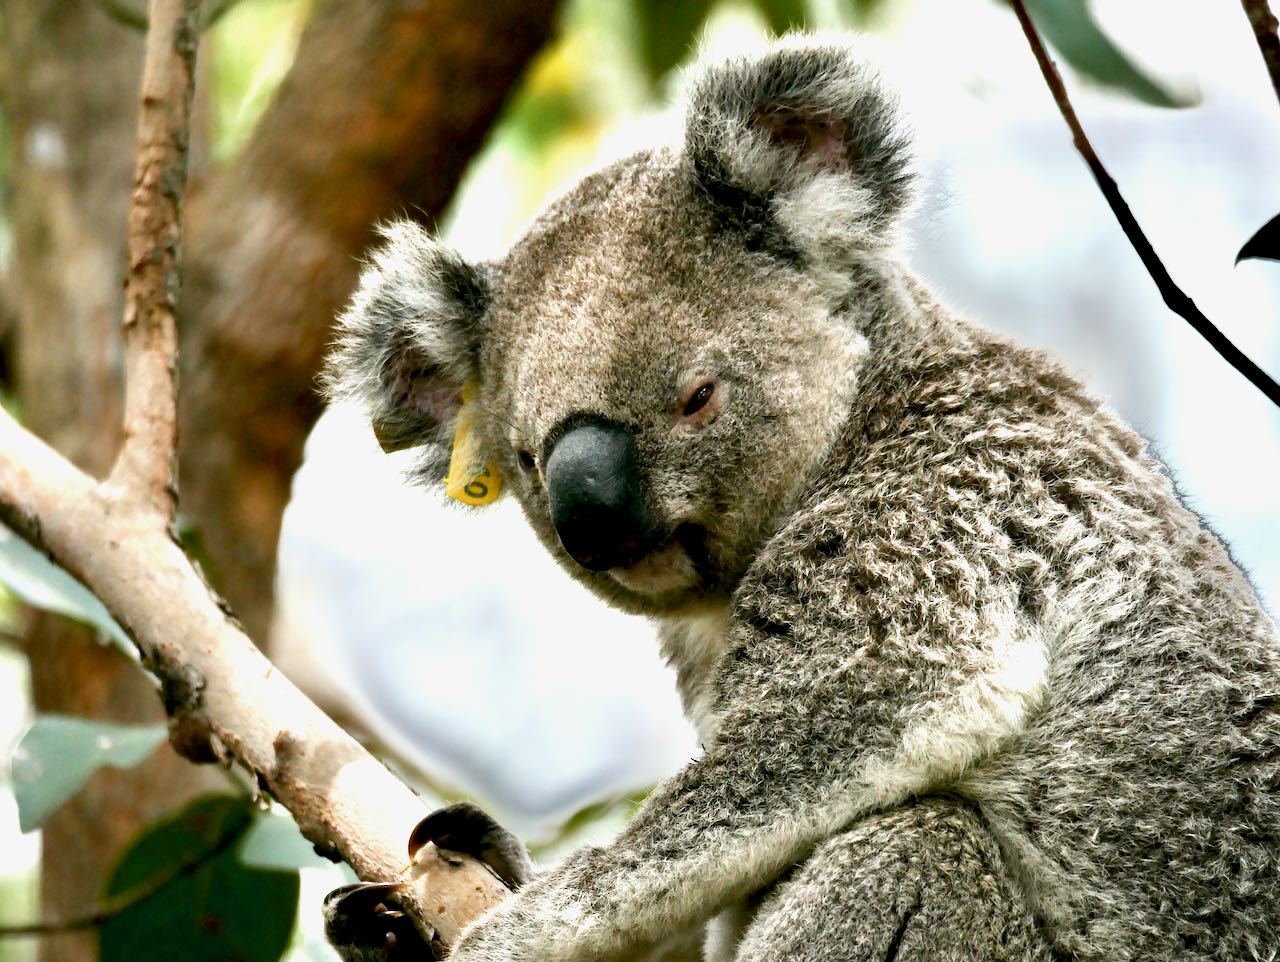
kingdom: Animalia
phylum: Chordata
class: Mammalia
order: Diprotodontia
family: Phascolarctidae
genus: Phascolarctos
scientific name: Phascolarctos cinereus
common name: Koala
